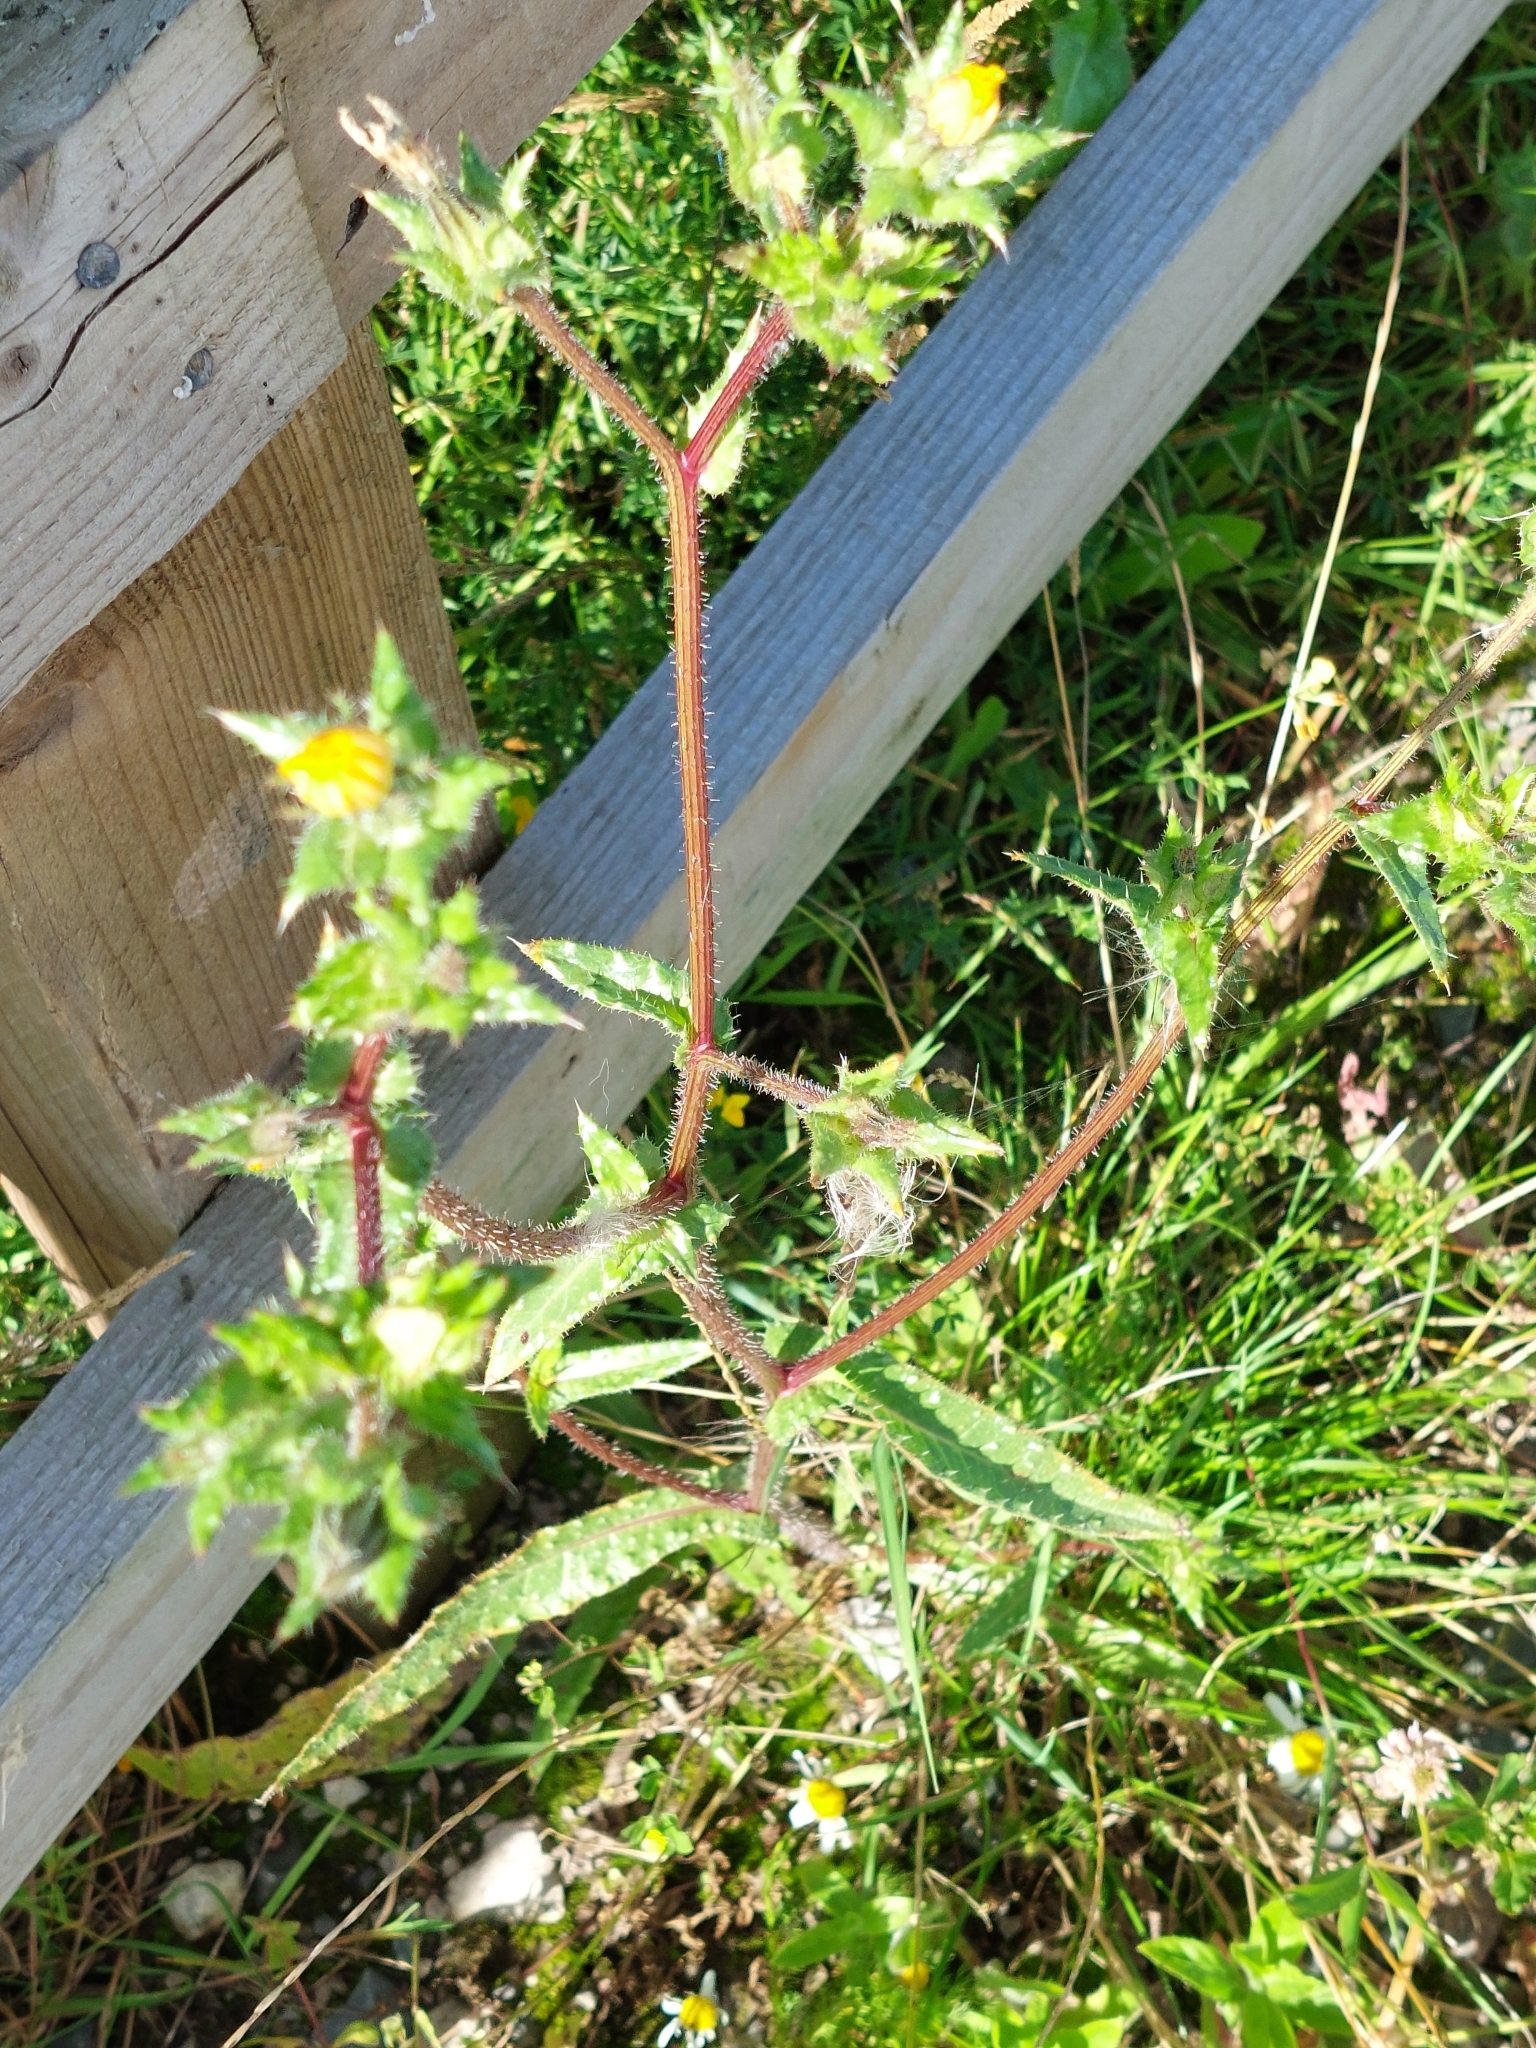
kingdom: Plantae
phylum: Tracheophyta
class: Magnoliopsida
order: Asterales
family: Asteraceae
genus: Helminthotheca
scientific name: Helminthotheca echioides
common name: Ox-tongue
